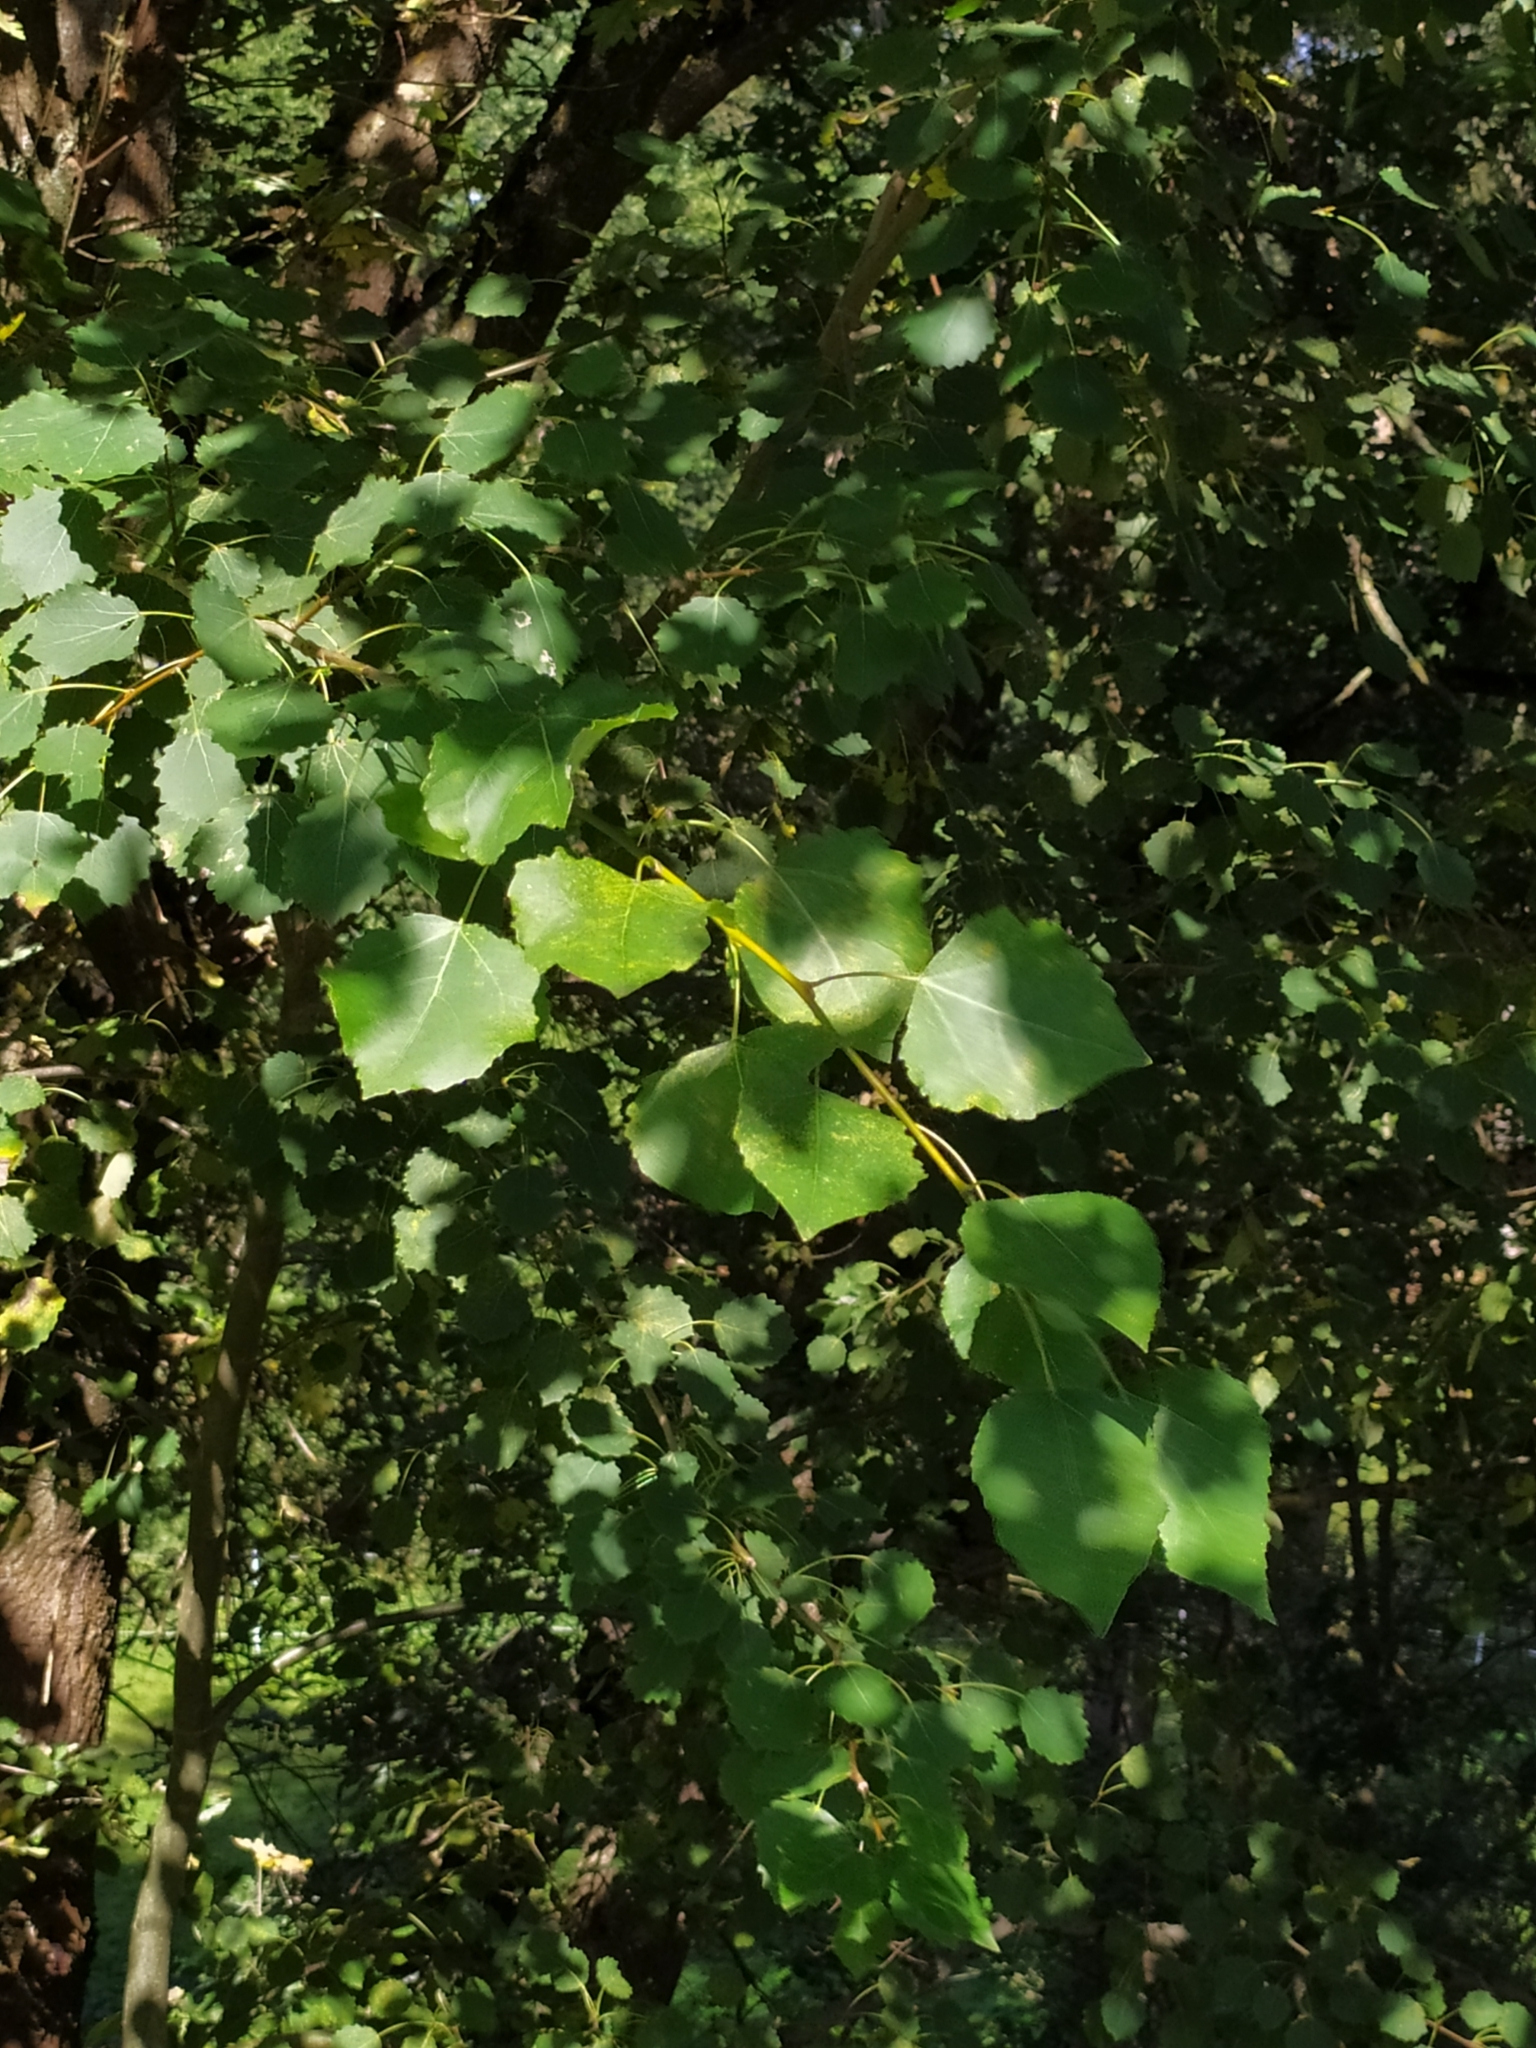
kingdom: Plantae
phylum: Tracheophyta
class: Magnoliopsida
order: Malpighiales
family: Salicaceae
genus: Populus
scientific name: Populus tremula
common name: European aspen
